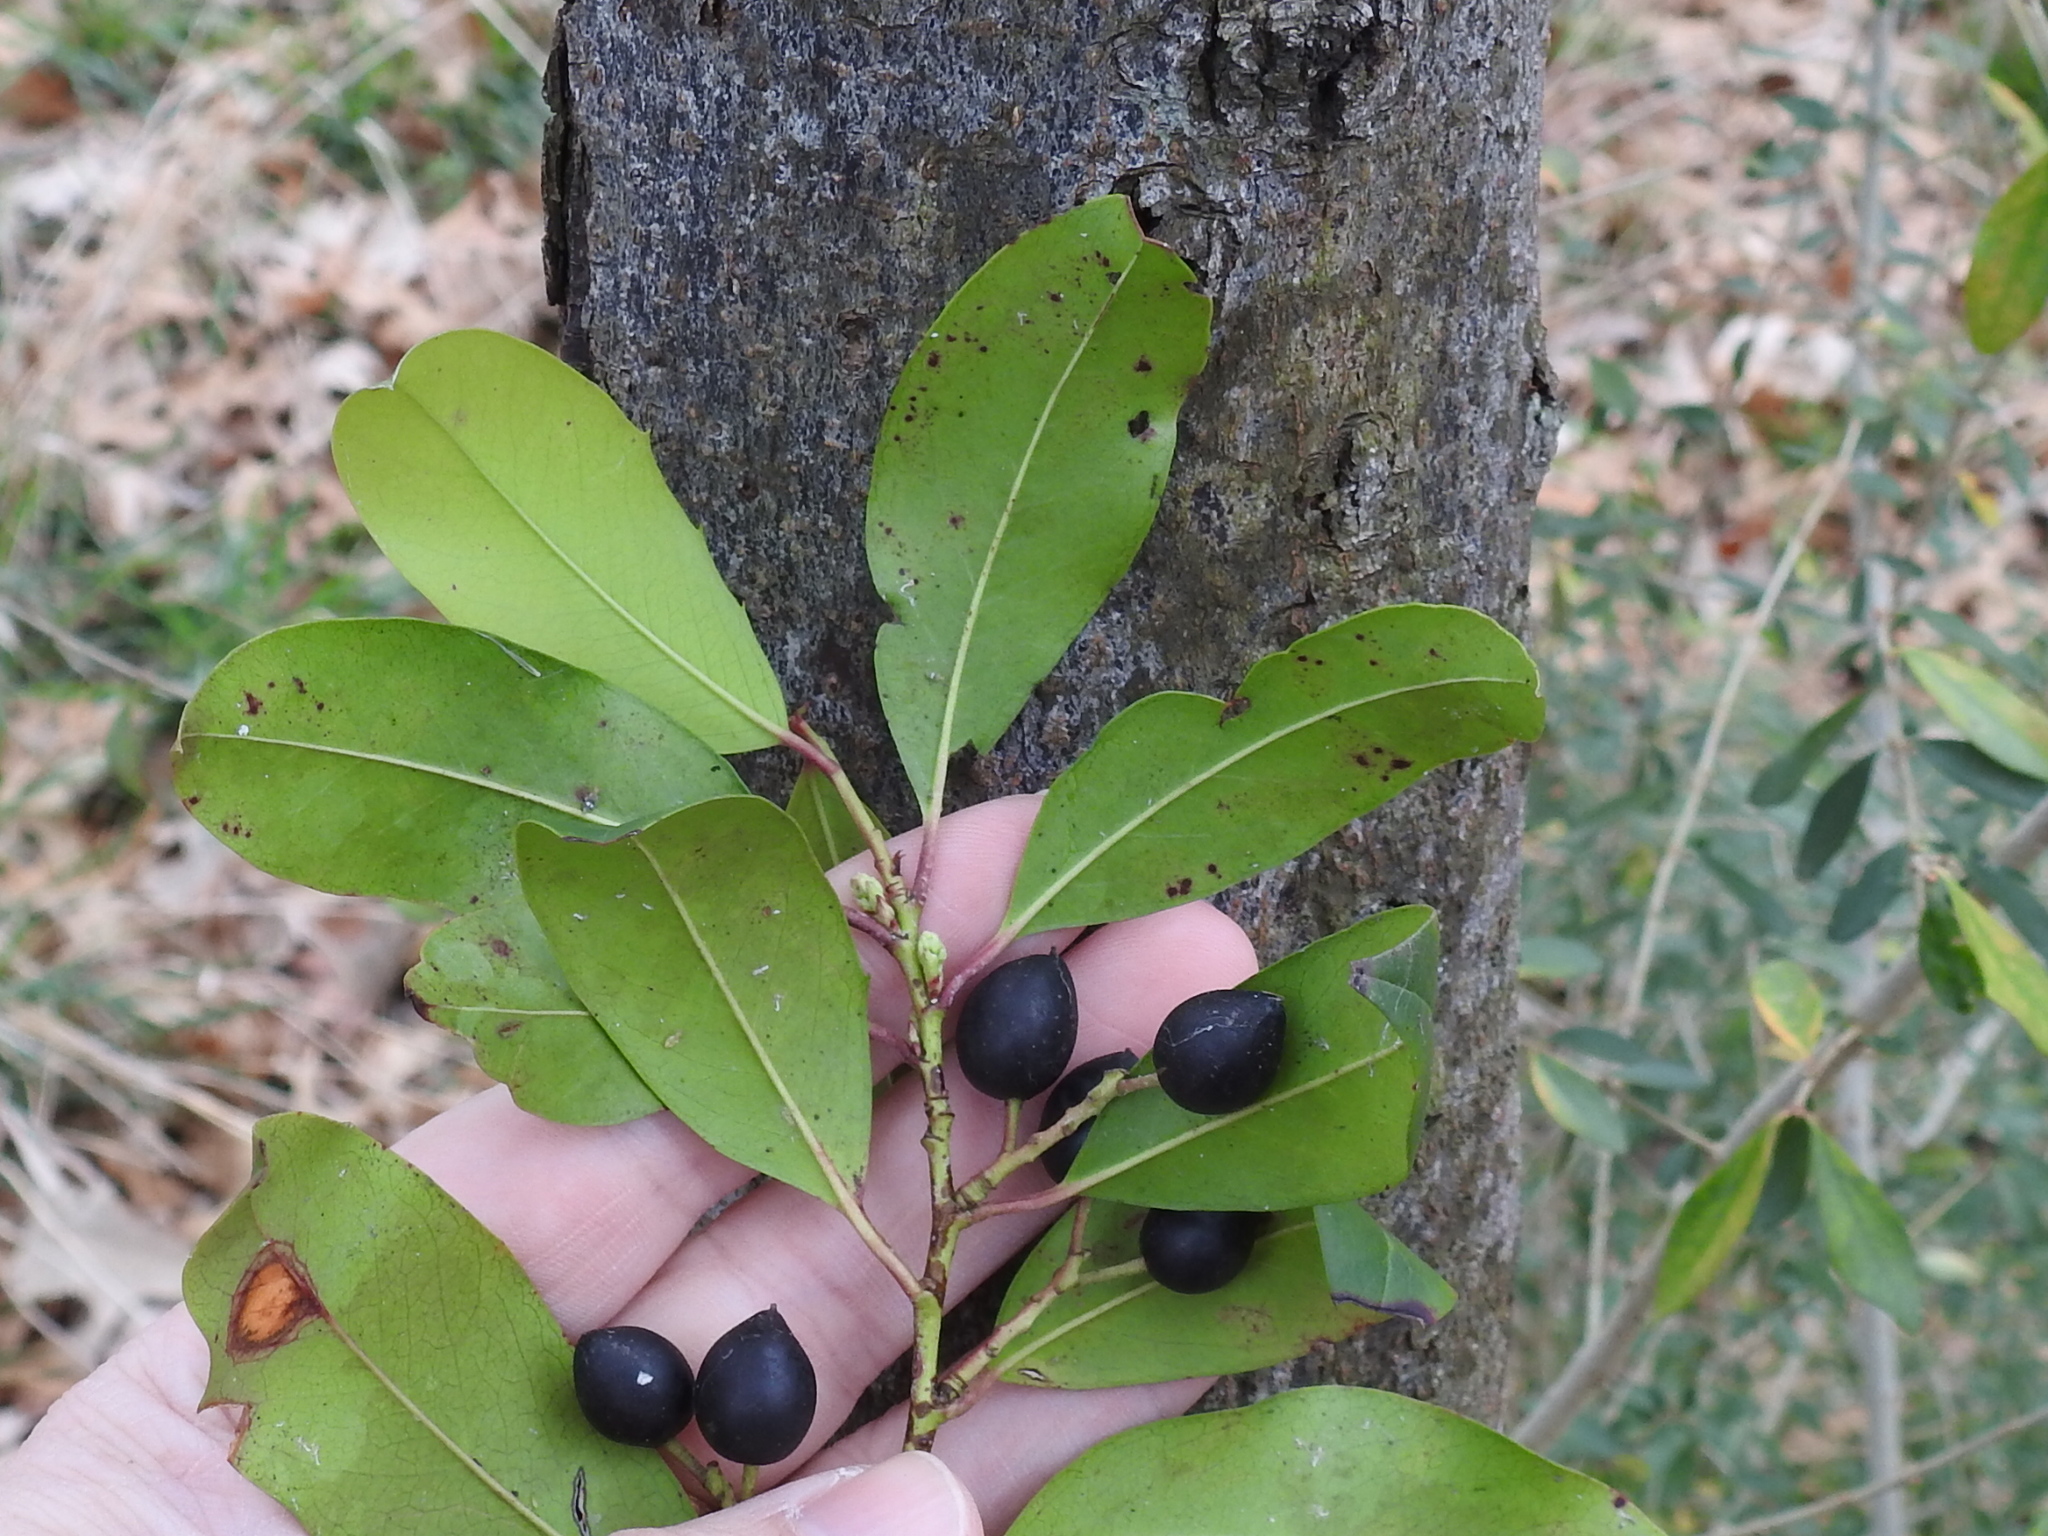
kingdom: Plantae
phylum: Tracheophyta
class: Magnoliopsida
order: Rosales
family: Rosaceae
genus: Prunus
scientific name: Prunus caroliniana
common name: Carolina laurel cherry
